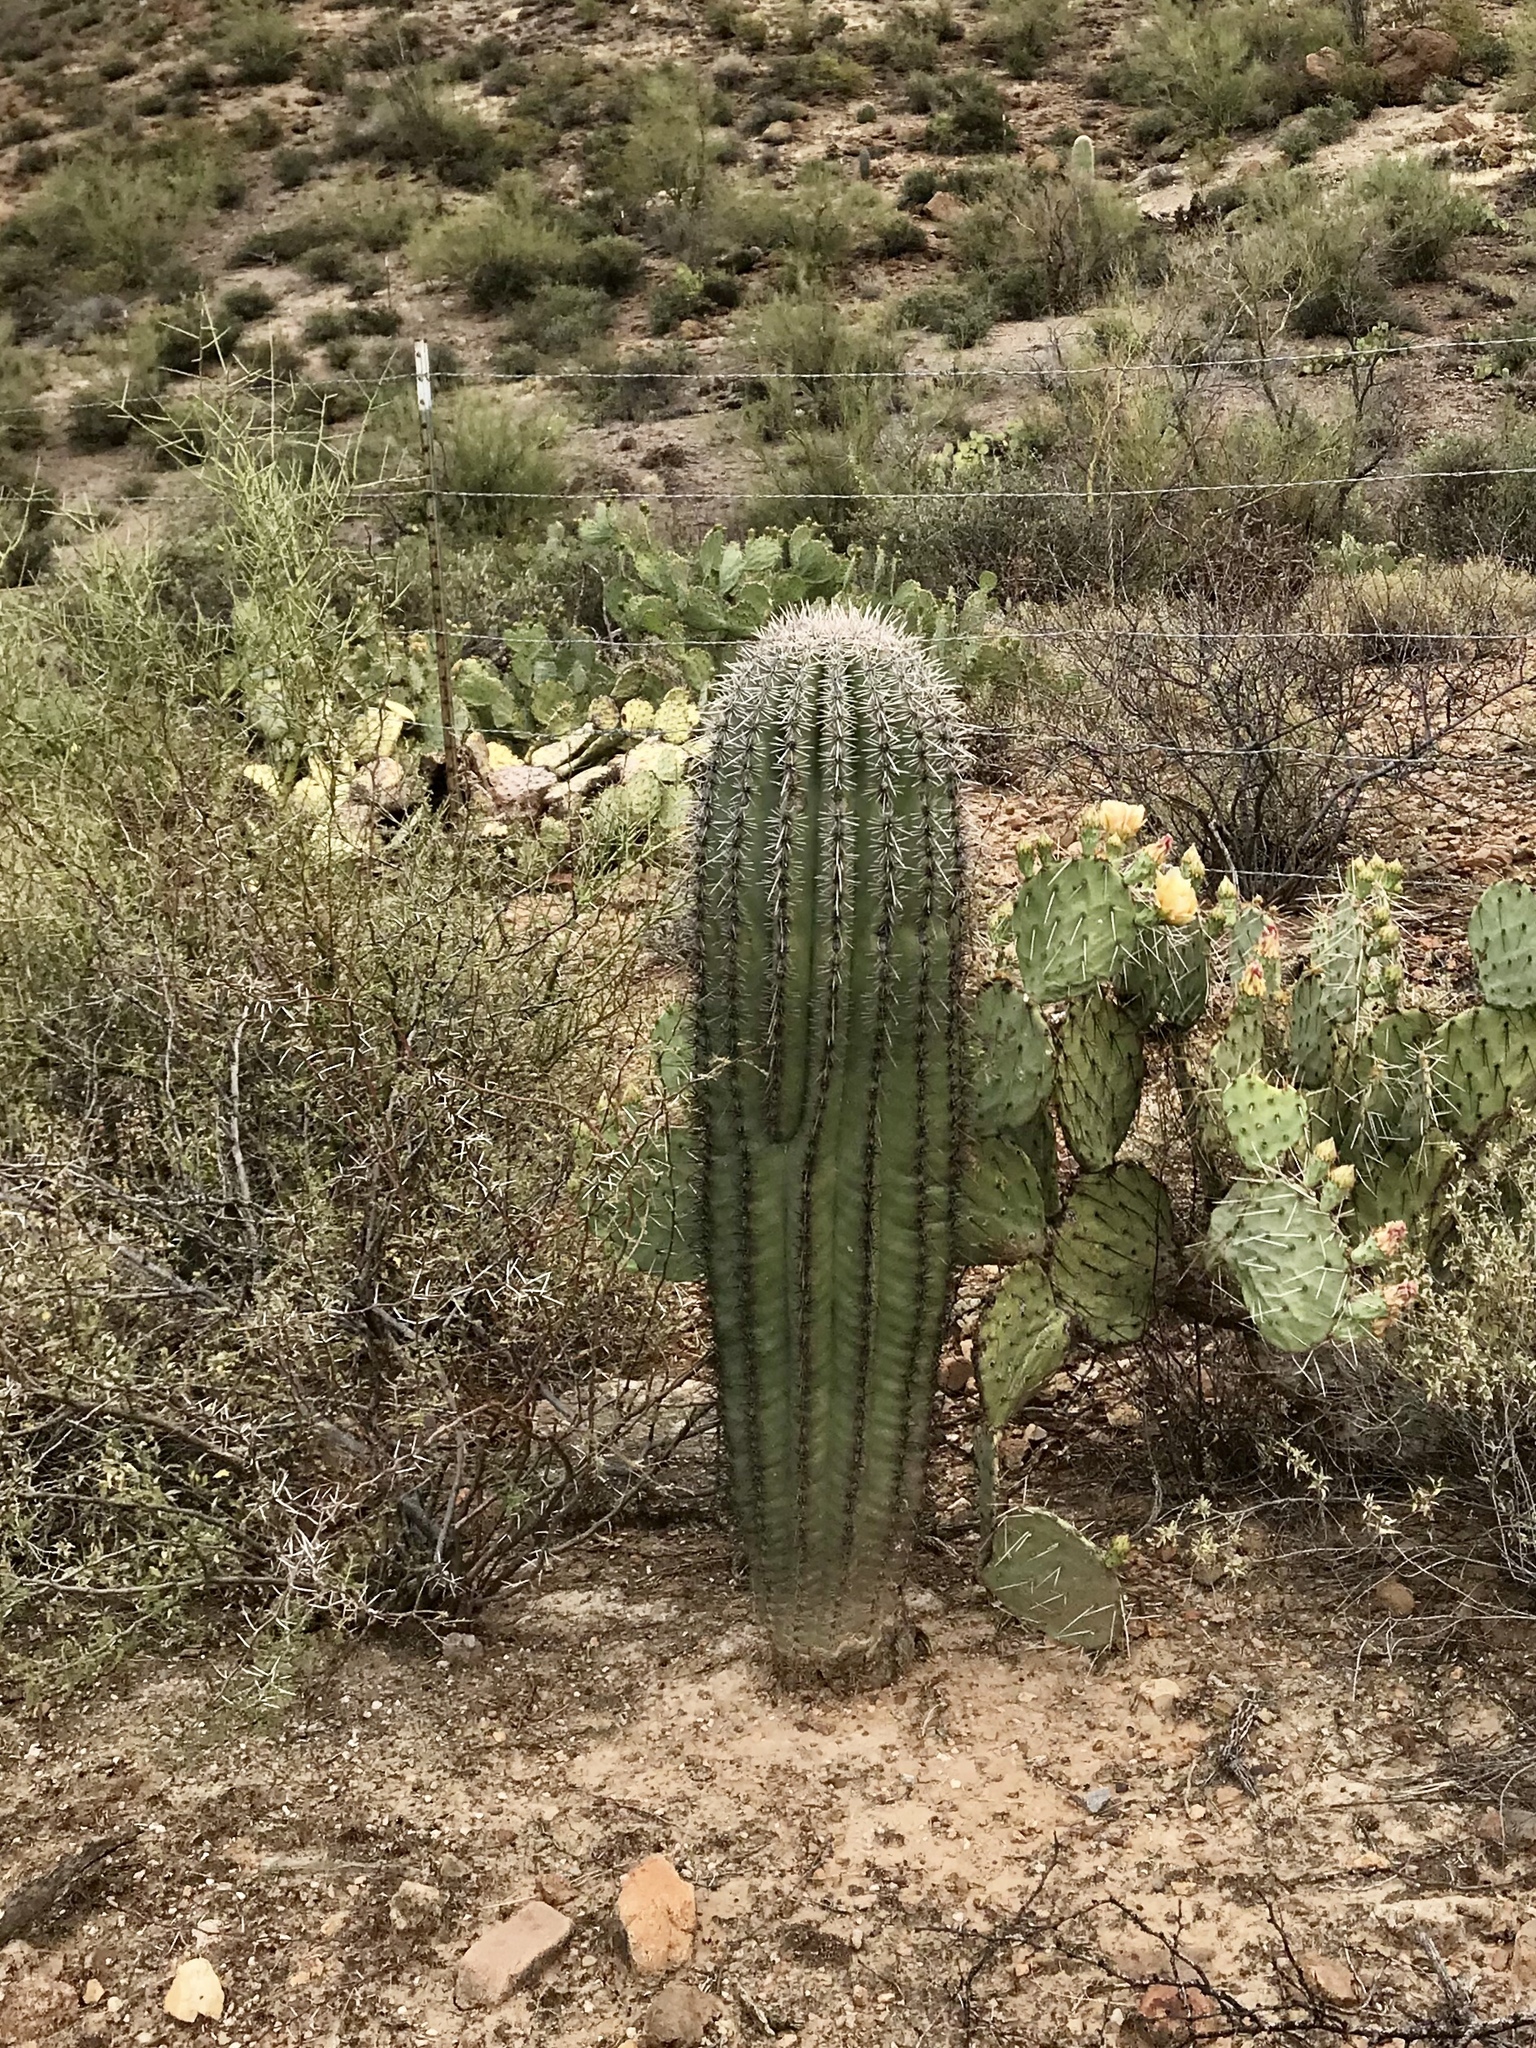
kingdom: Plantae
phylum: Tracheophyta
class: Magnoliopsida
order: Caryophyllales
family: Cactaceae
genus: Carnegiea
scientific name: Carnegiea gigantea
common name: Saguaro
